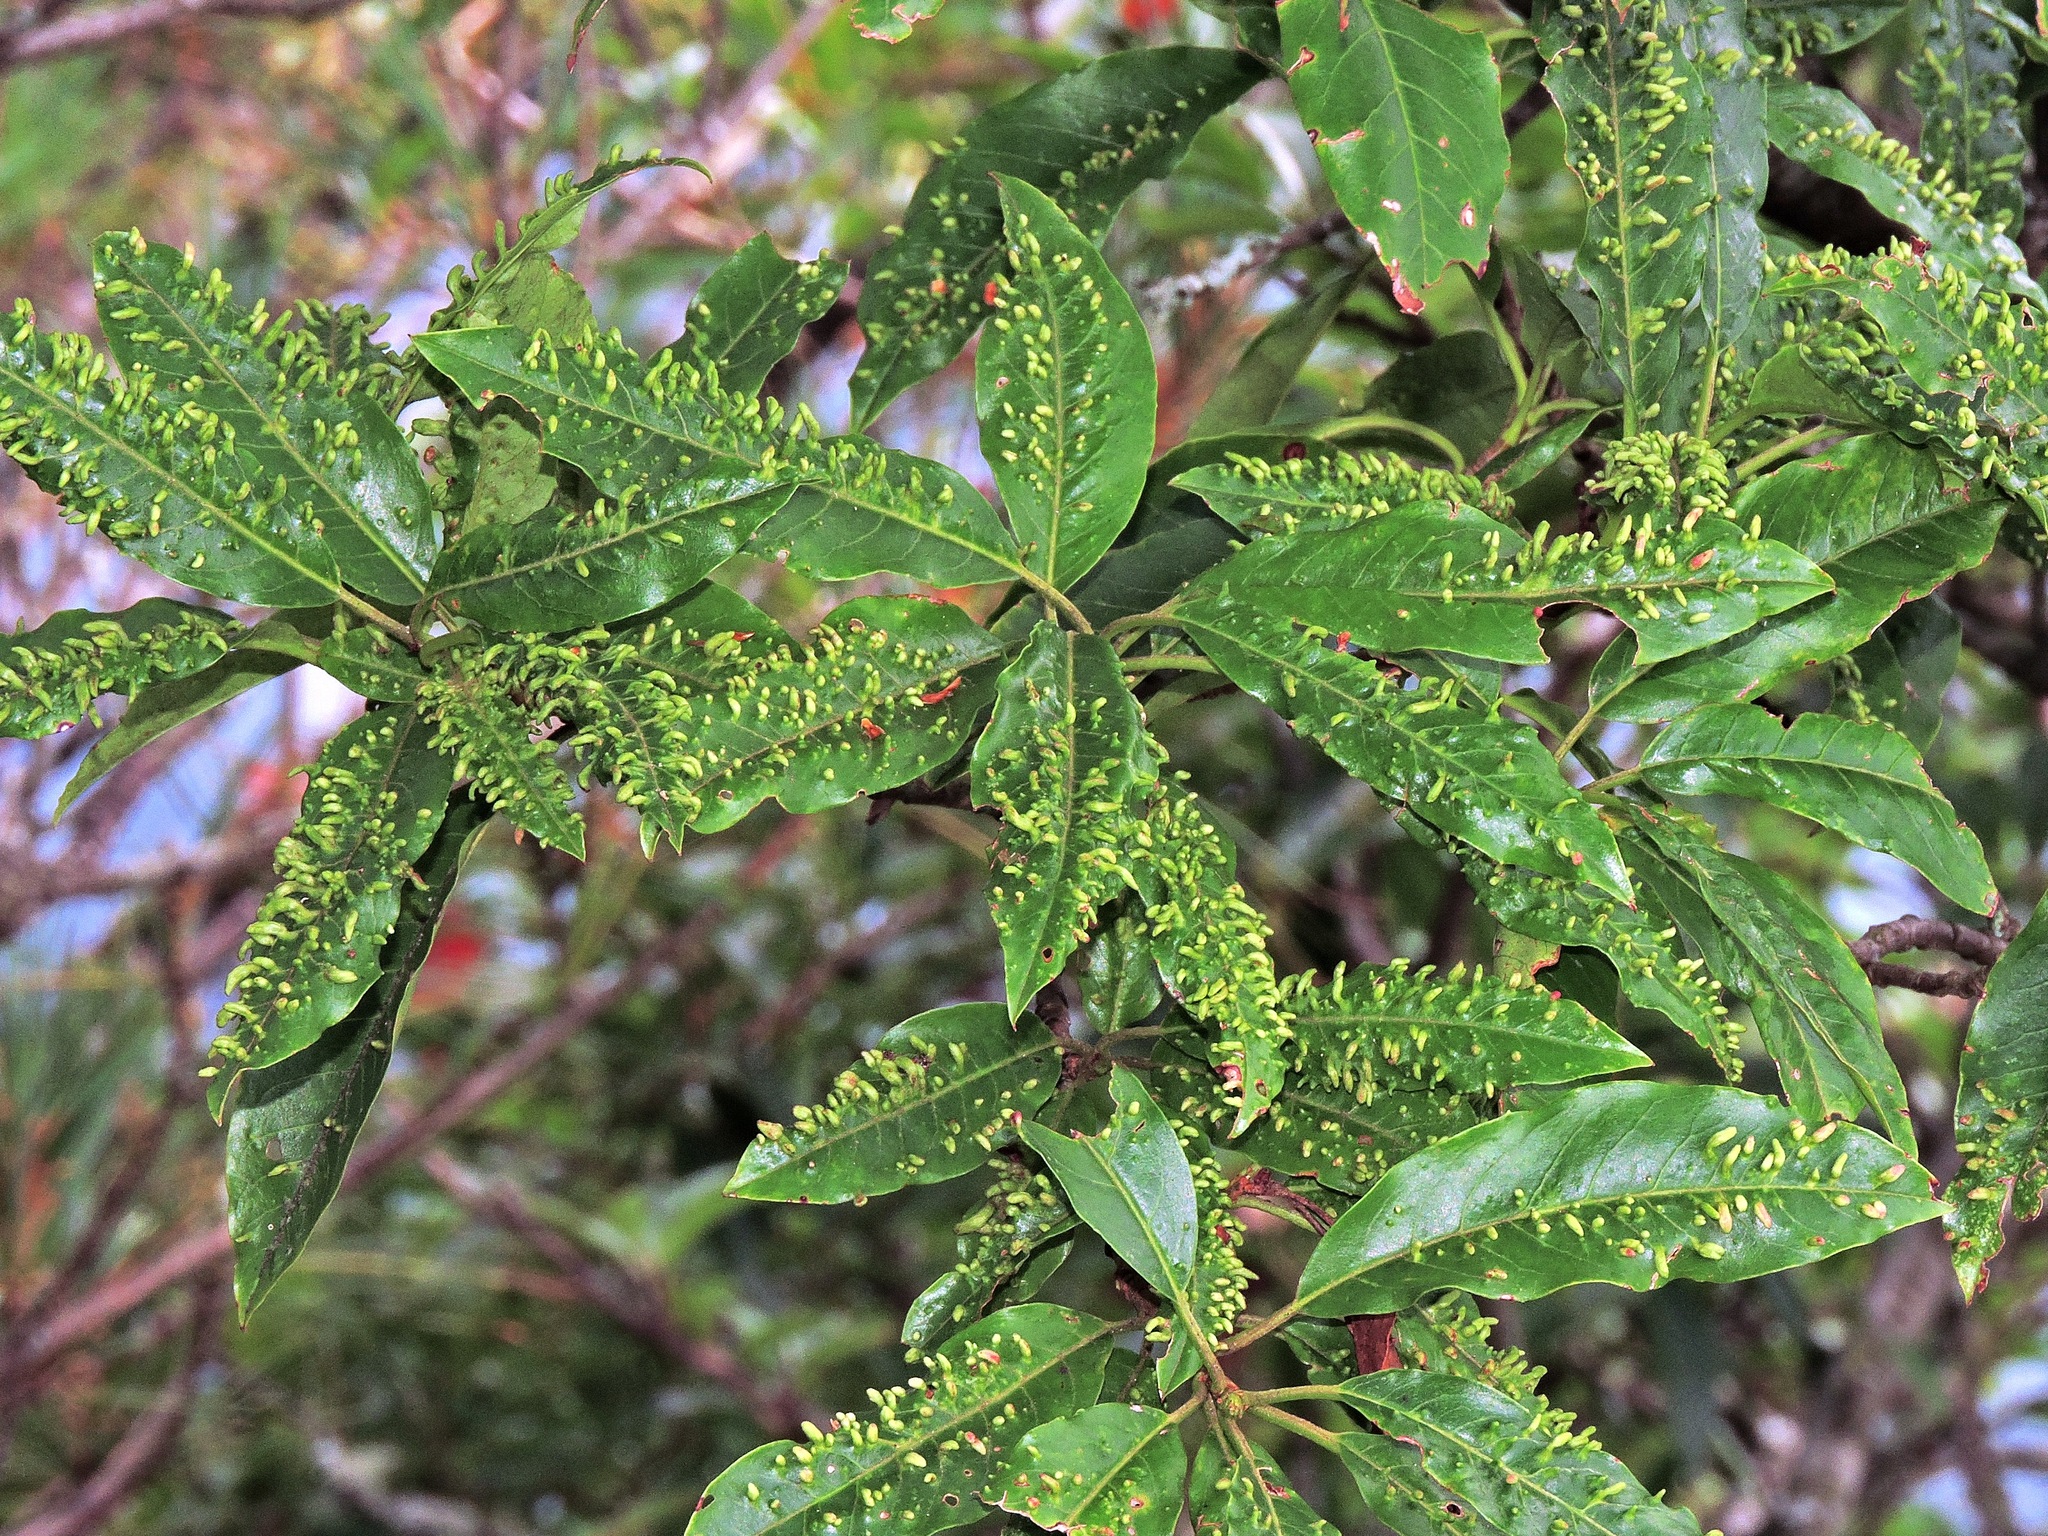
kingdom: Plantae
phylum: Tracheophyta
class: Magnoliopsida
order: Rosales
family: Rosaceae
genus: Stranvaesia
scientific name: Stranvaesia davidiana
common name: Chinese photinia
